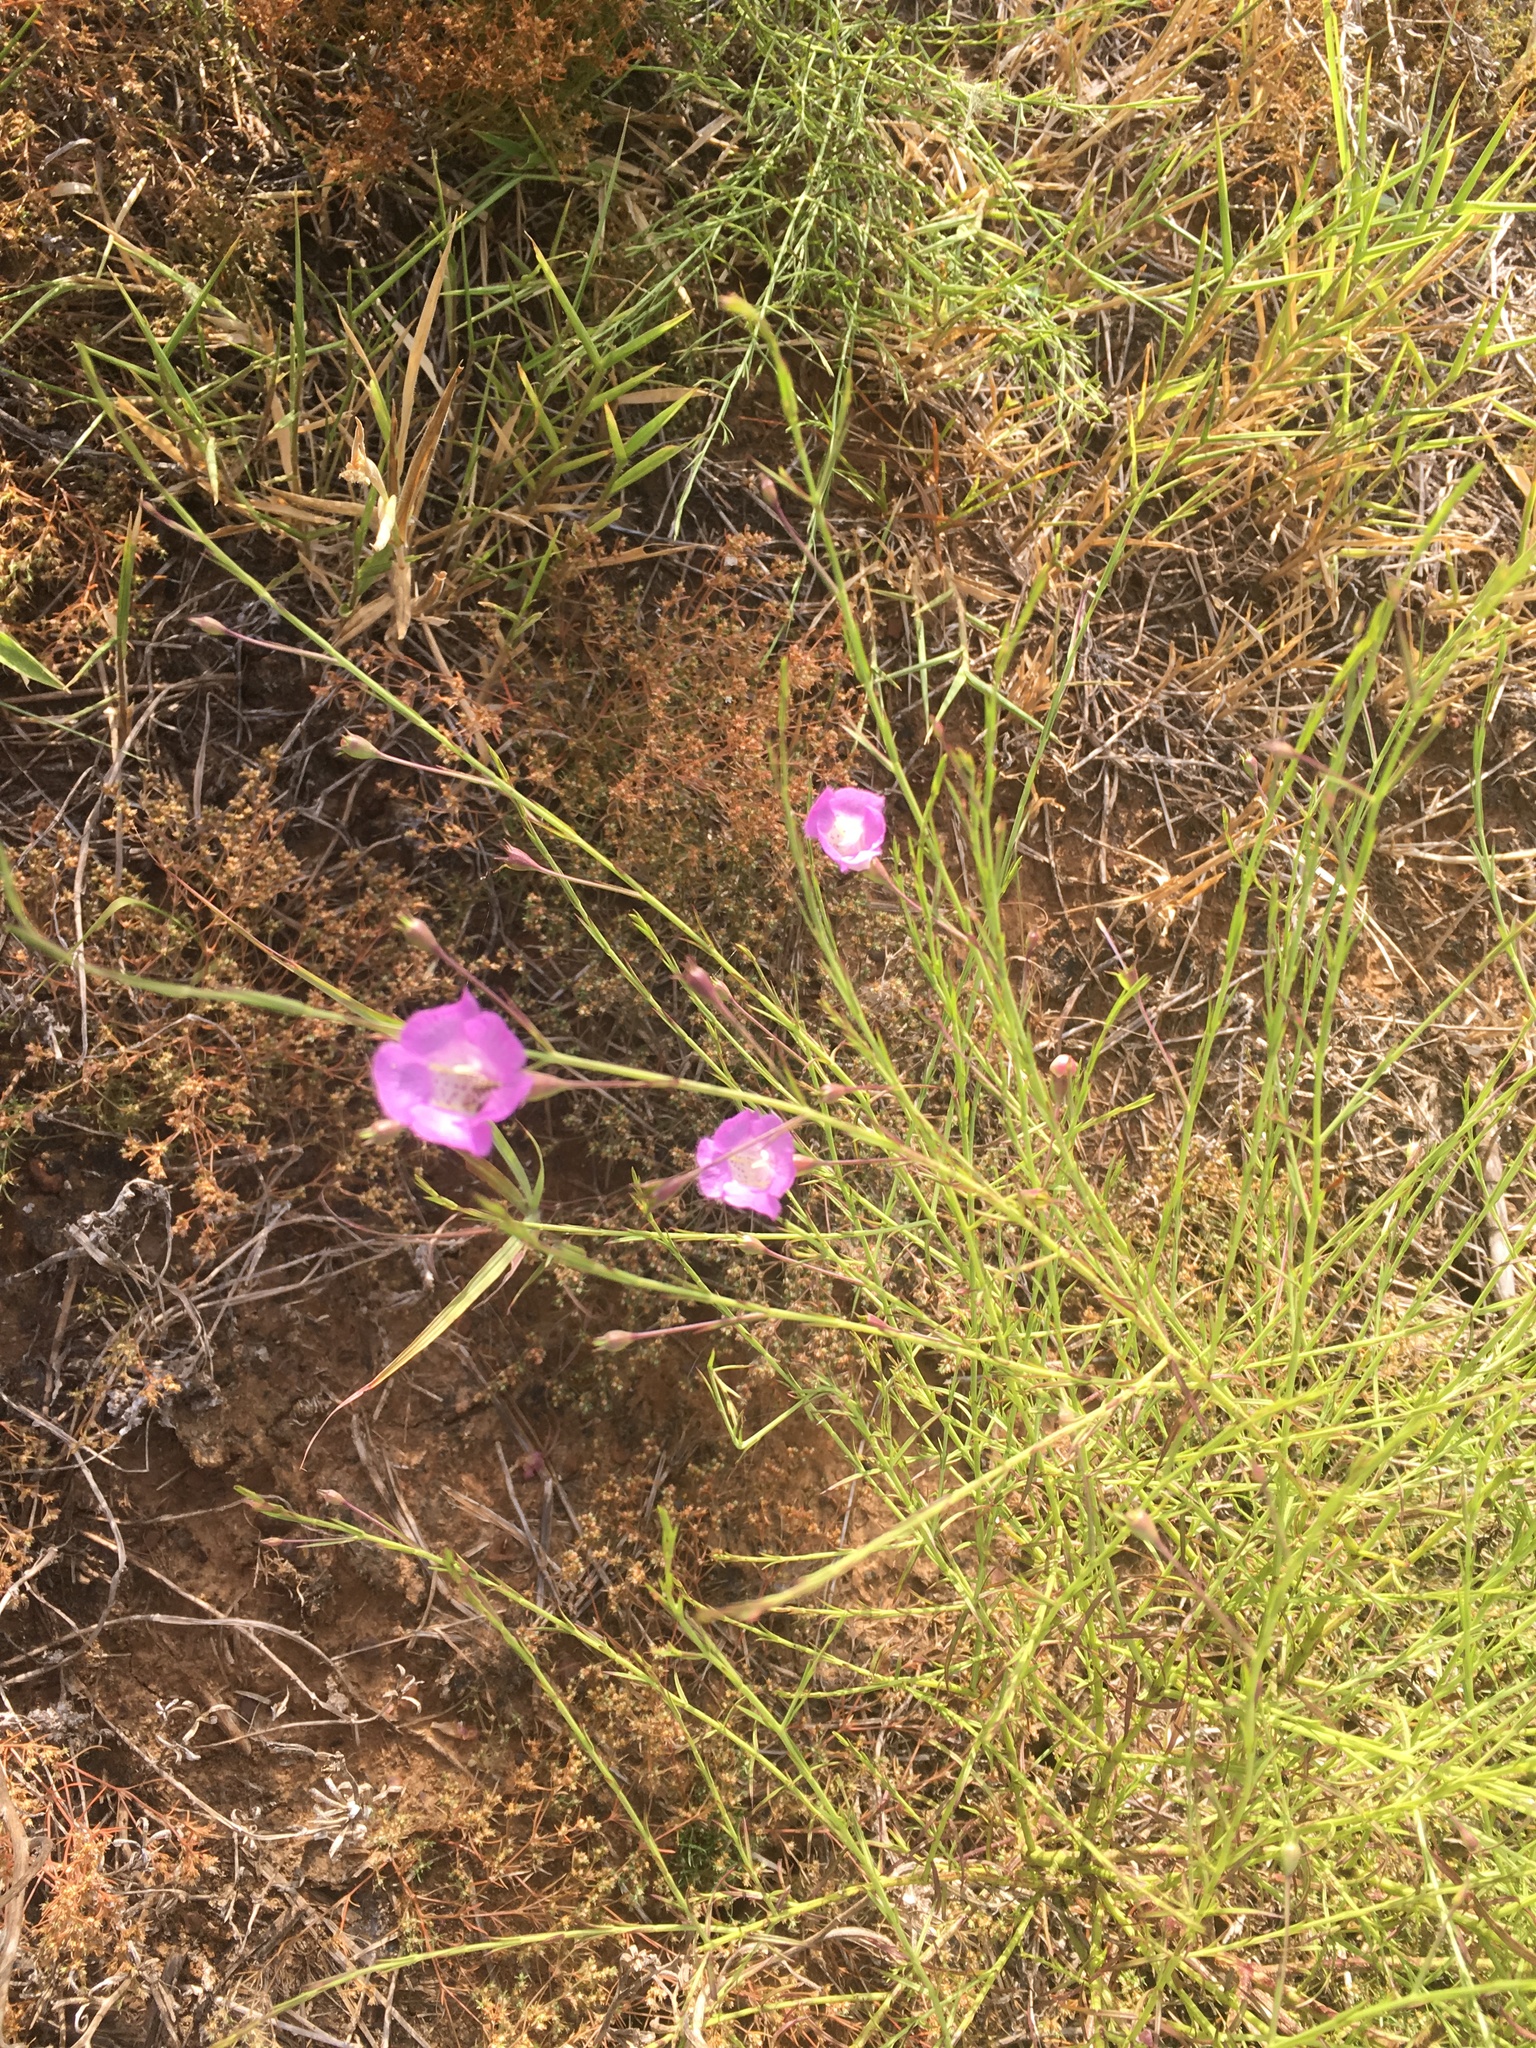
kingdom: Plantae
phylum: Tracheophyta
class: Magnoliopsida
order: Lamiales
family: Orobanchaceae
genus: Agalinis
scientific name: Agalinis strictifolia
